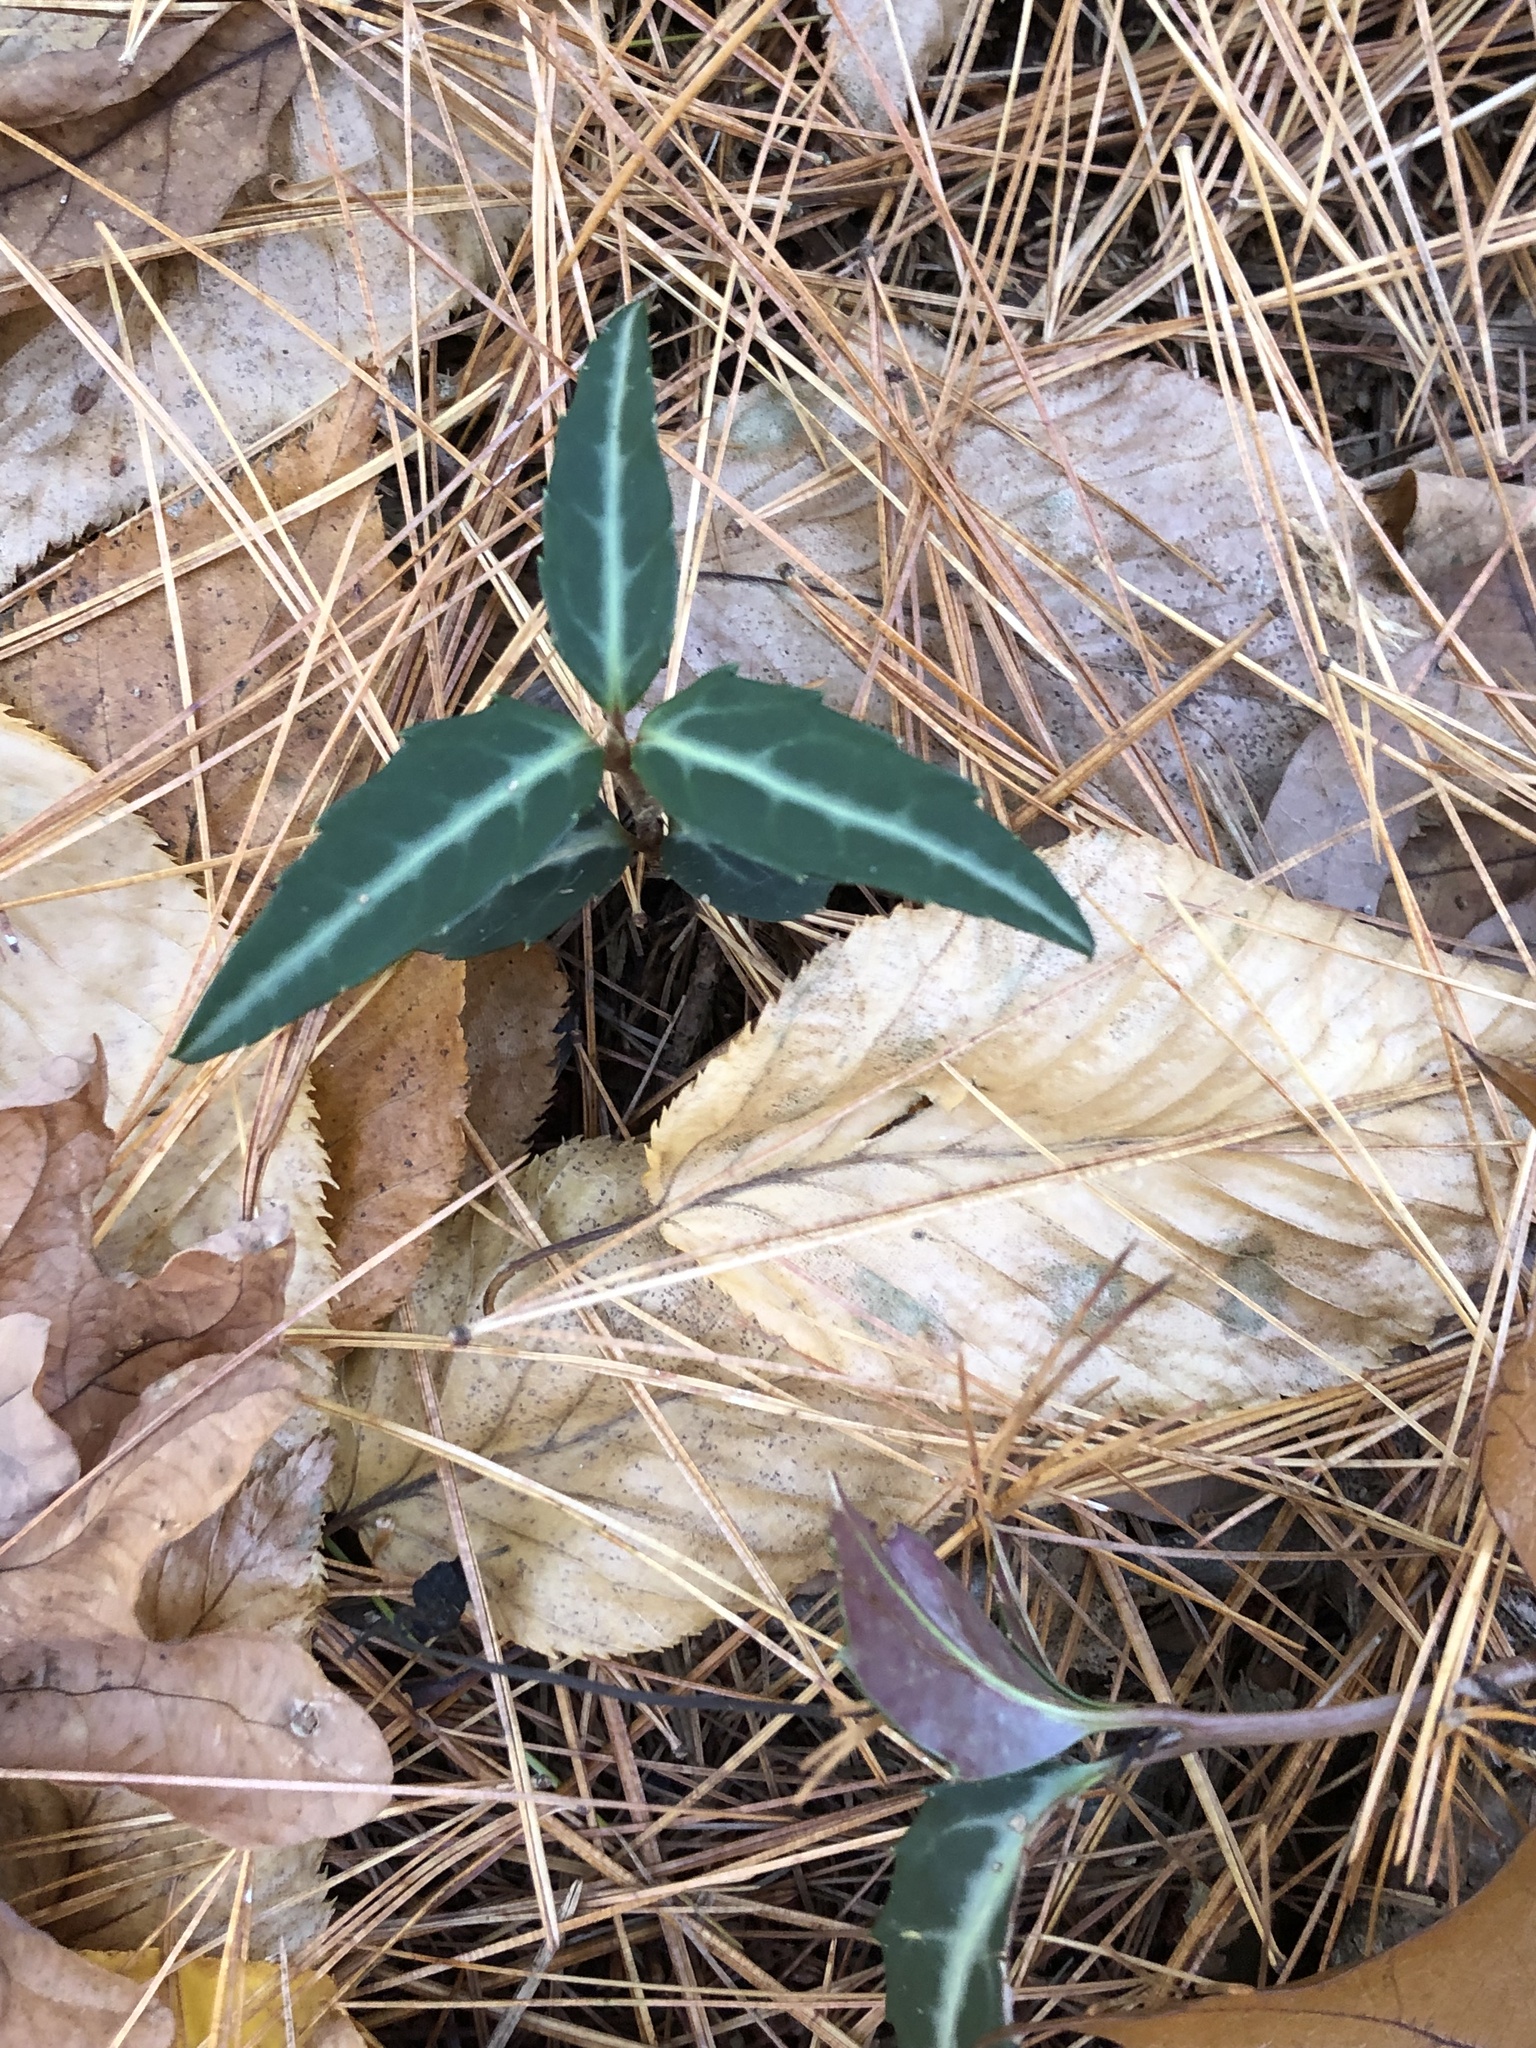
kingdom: Plantae
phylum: Tracheophyta
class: Magnoliopsida
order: Ericales
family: Ericaceae
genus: Chimaphila
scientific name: Chimaphila maculata
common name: Spotted pipsissewa
